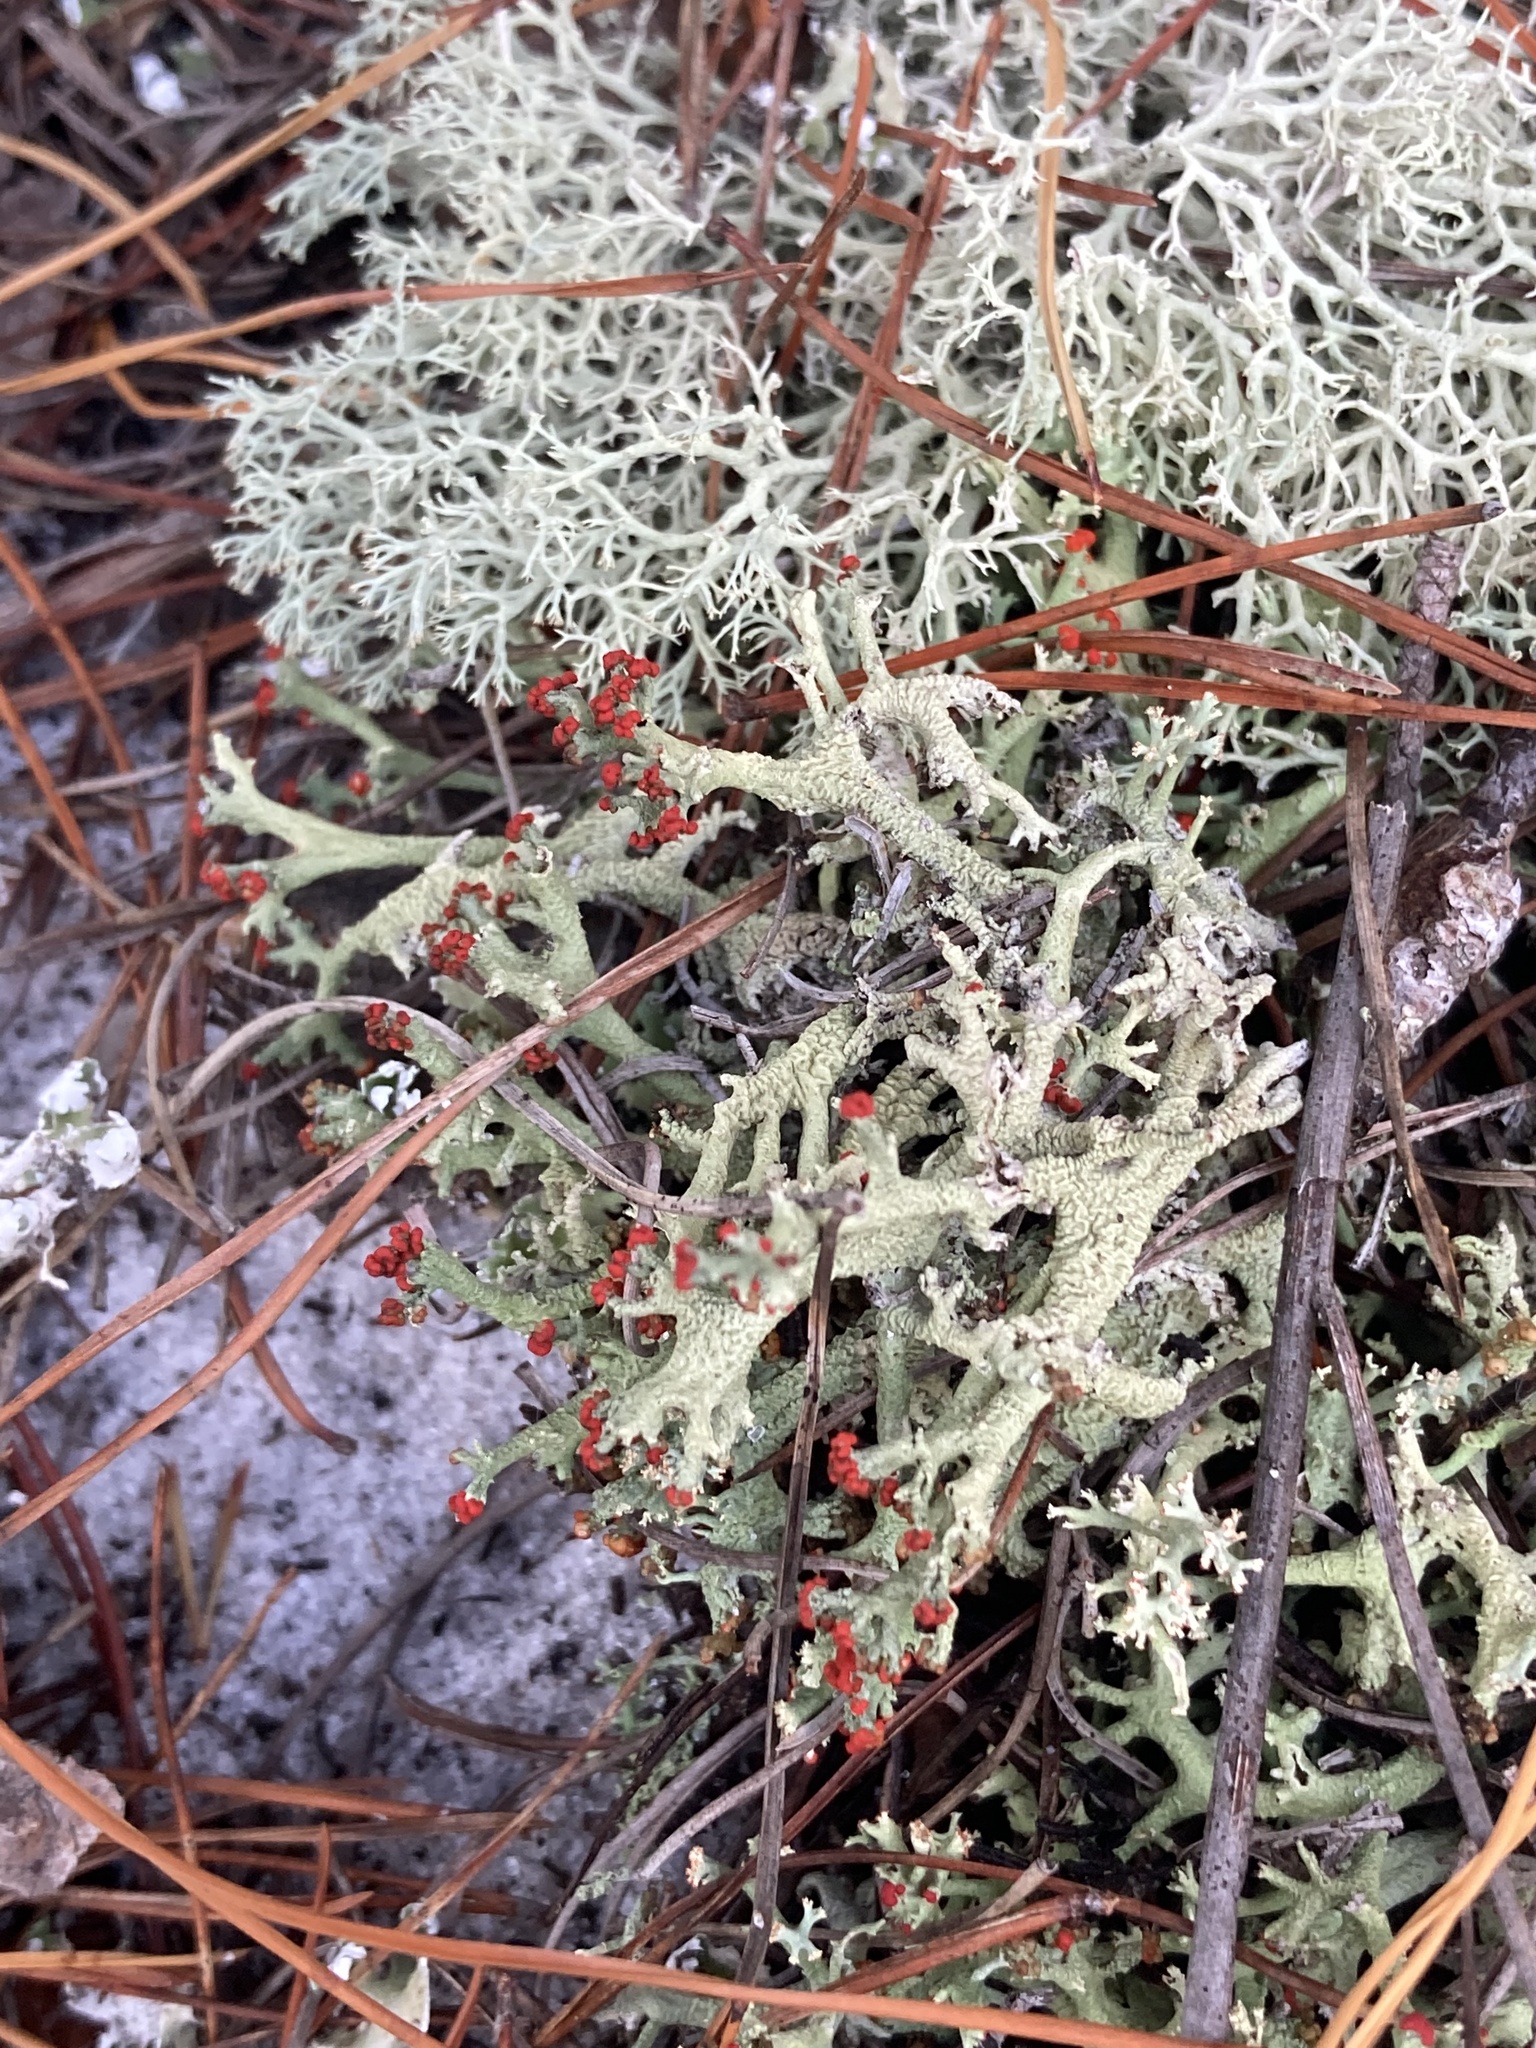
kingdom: Fungi
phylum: Ascomycota
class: Lecanoromycetes
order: Lecanorales
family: Cladoniaceae
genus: Cladonia
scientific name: Cladonia leporina
